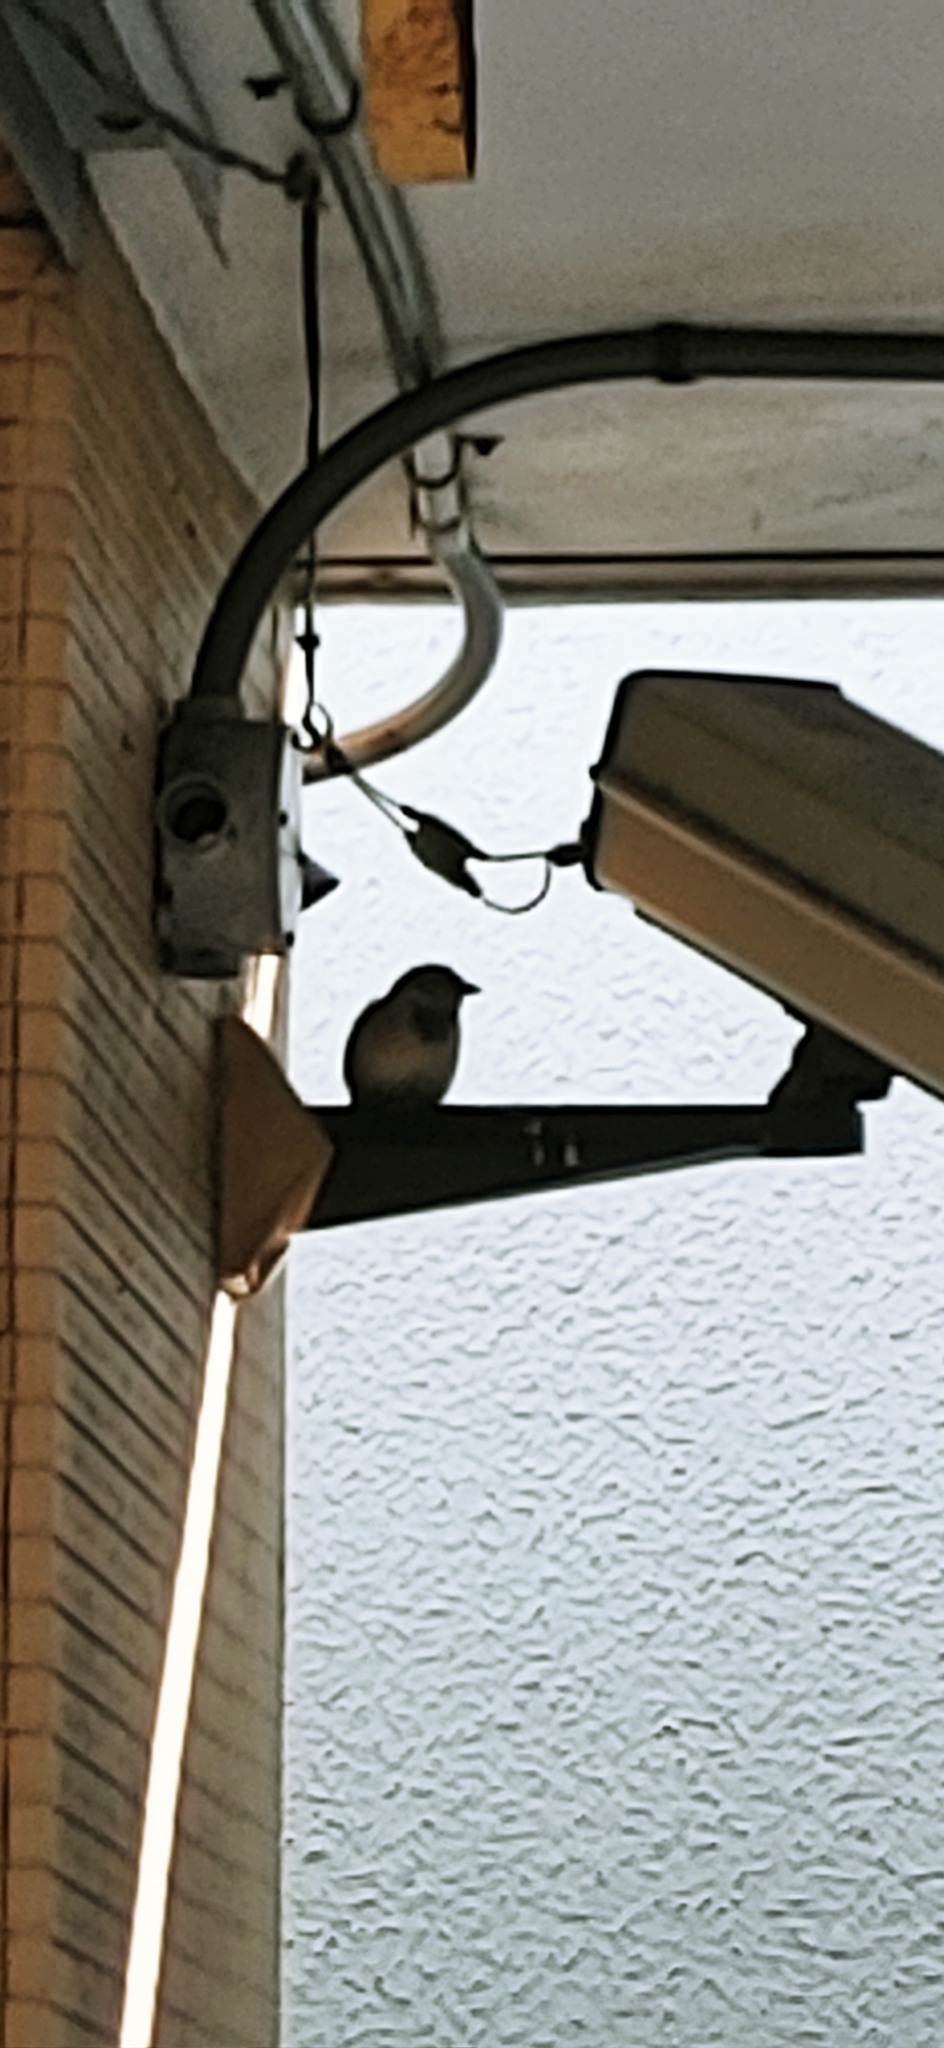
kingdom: Animalia
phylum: Chordata
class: Aves
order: Passeriformes
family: Passeridae
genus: Passer
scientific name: Passer domesticus
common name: House sparrow
